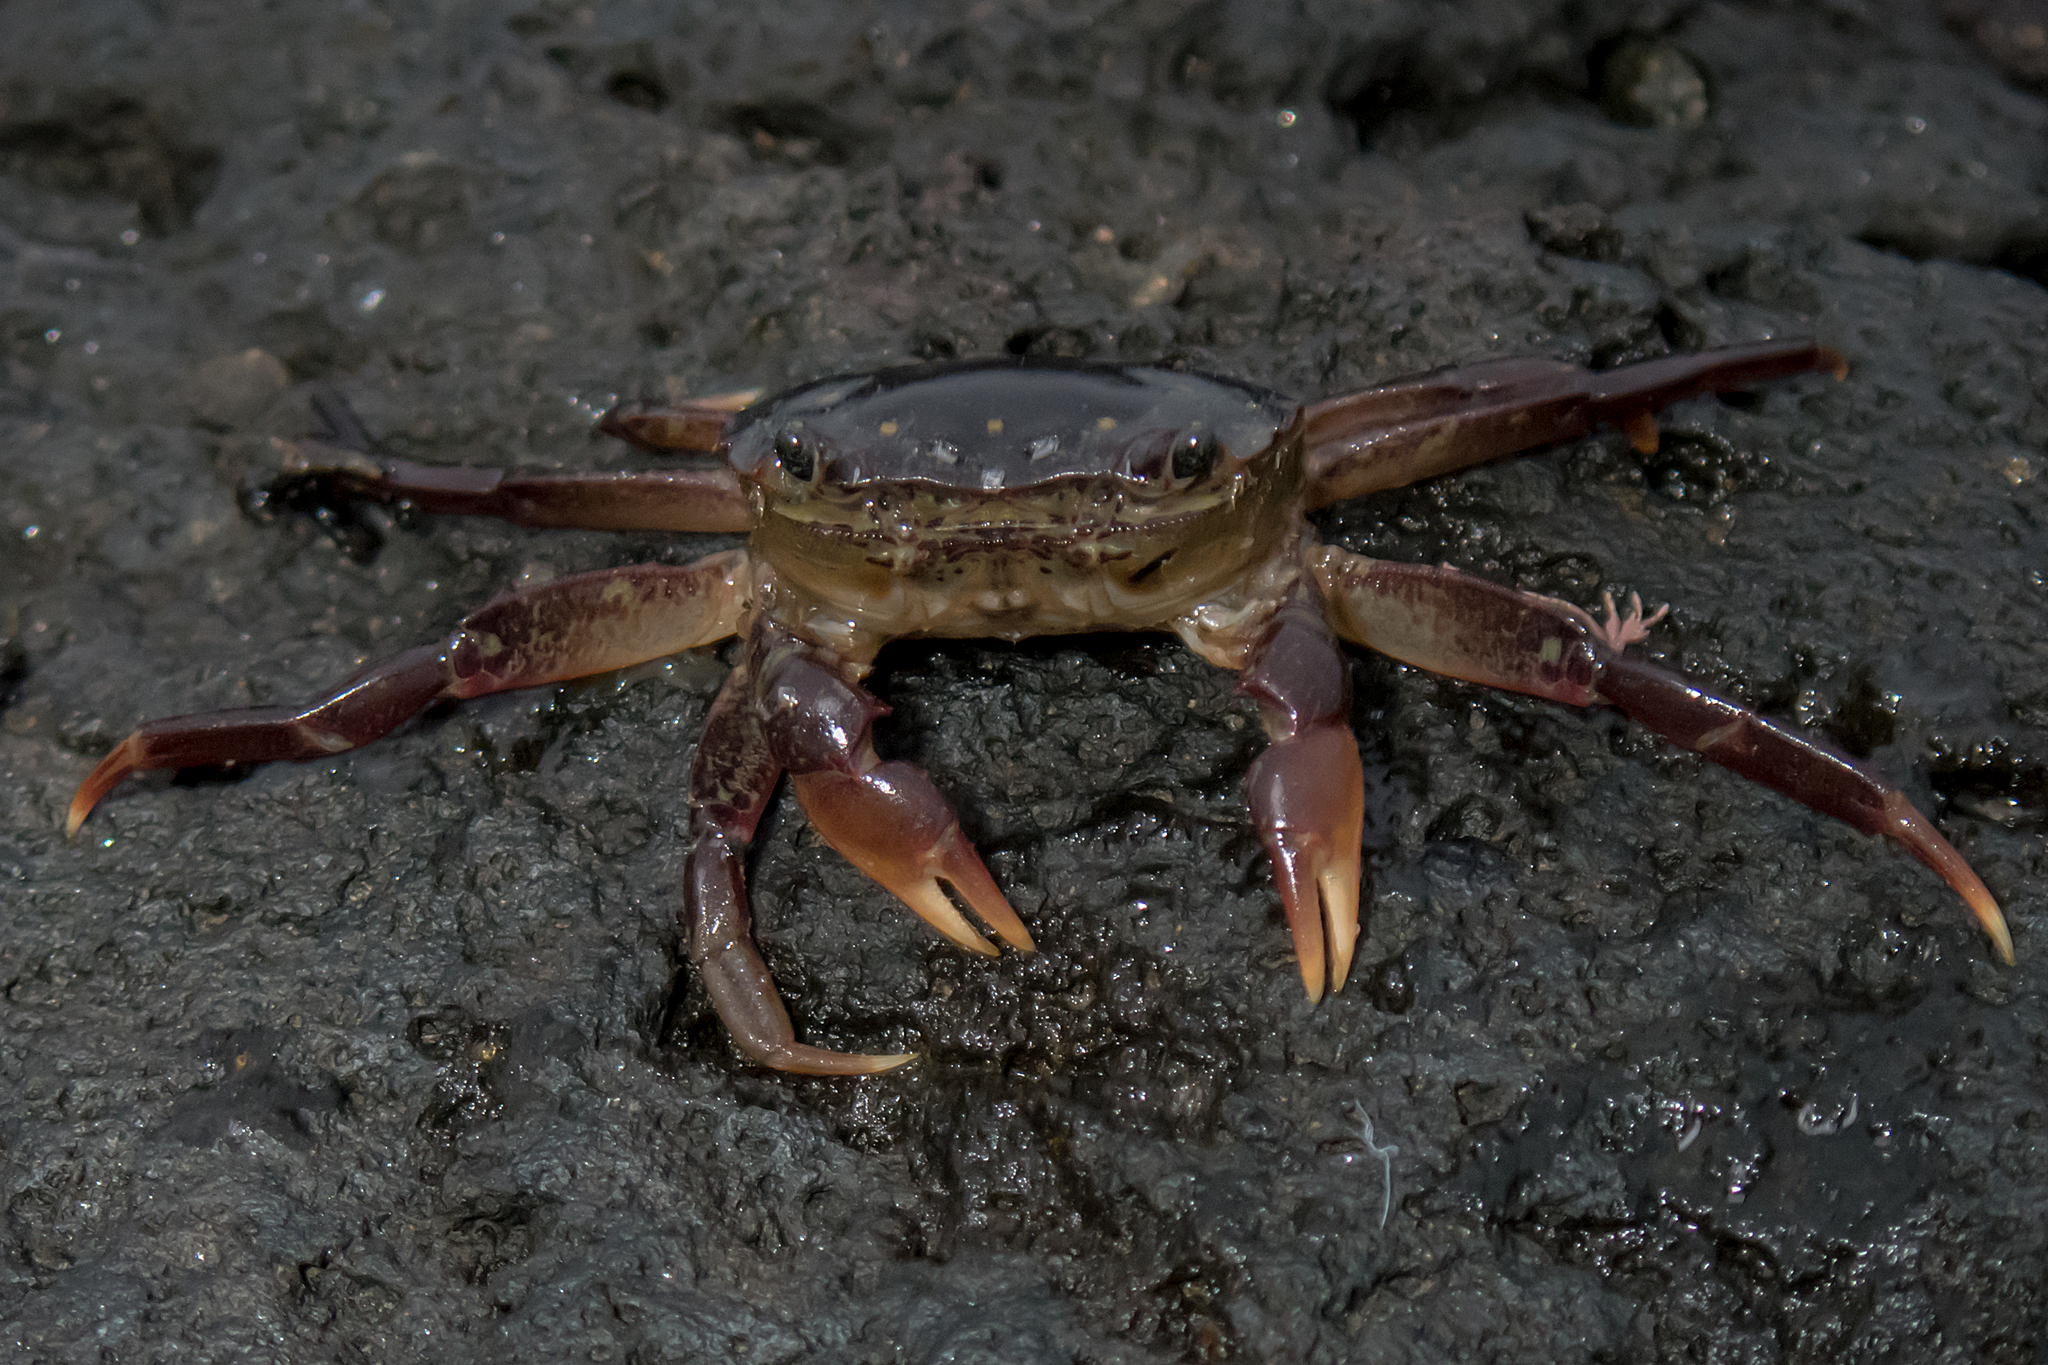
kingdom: Animalia
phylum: Arthropoda
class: Malacostraca
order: Decapoda
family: Varunidae
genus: Paragrapsus
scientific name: Paragrapsus laevis
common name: Smooth shore crab
